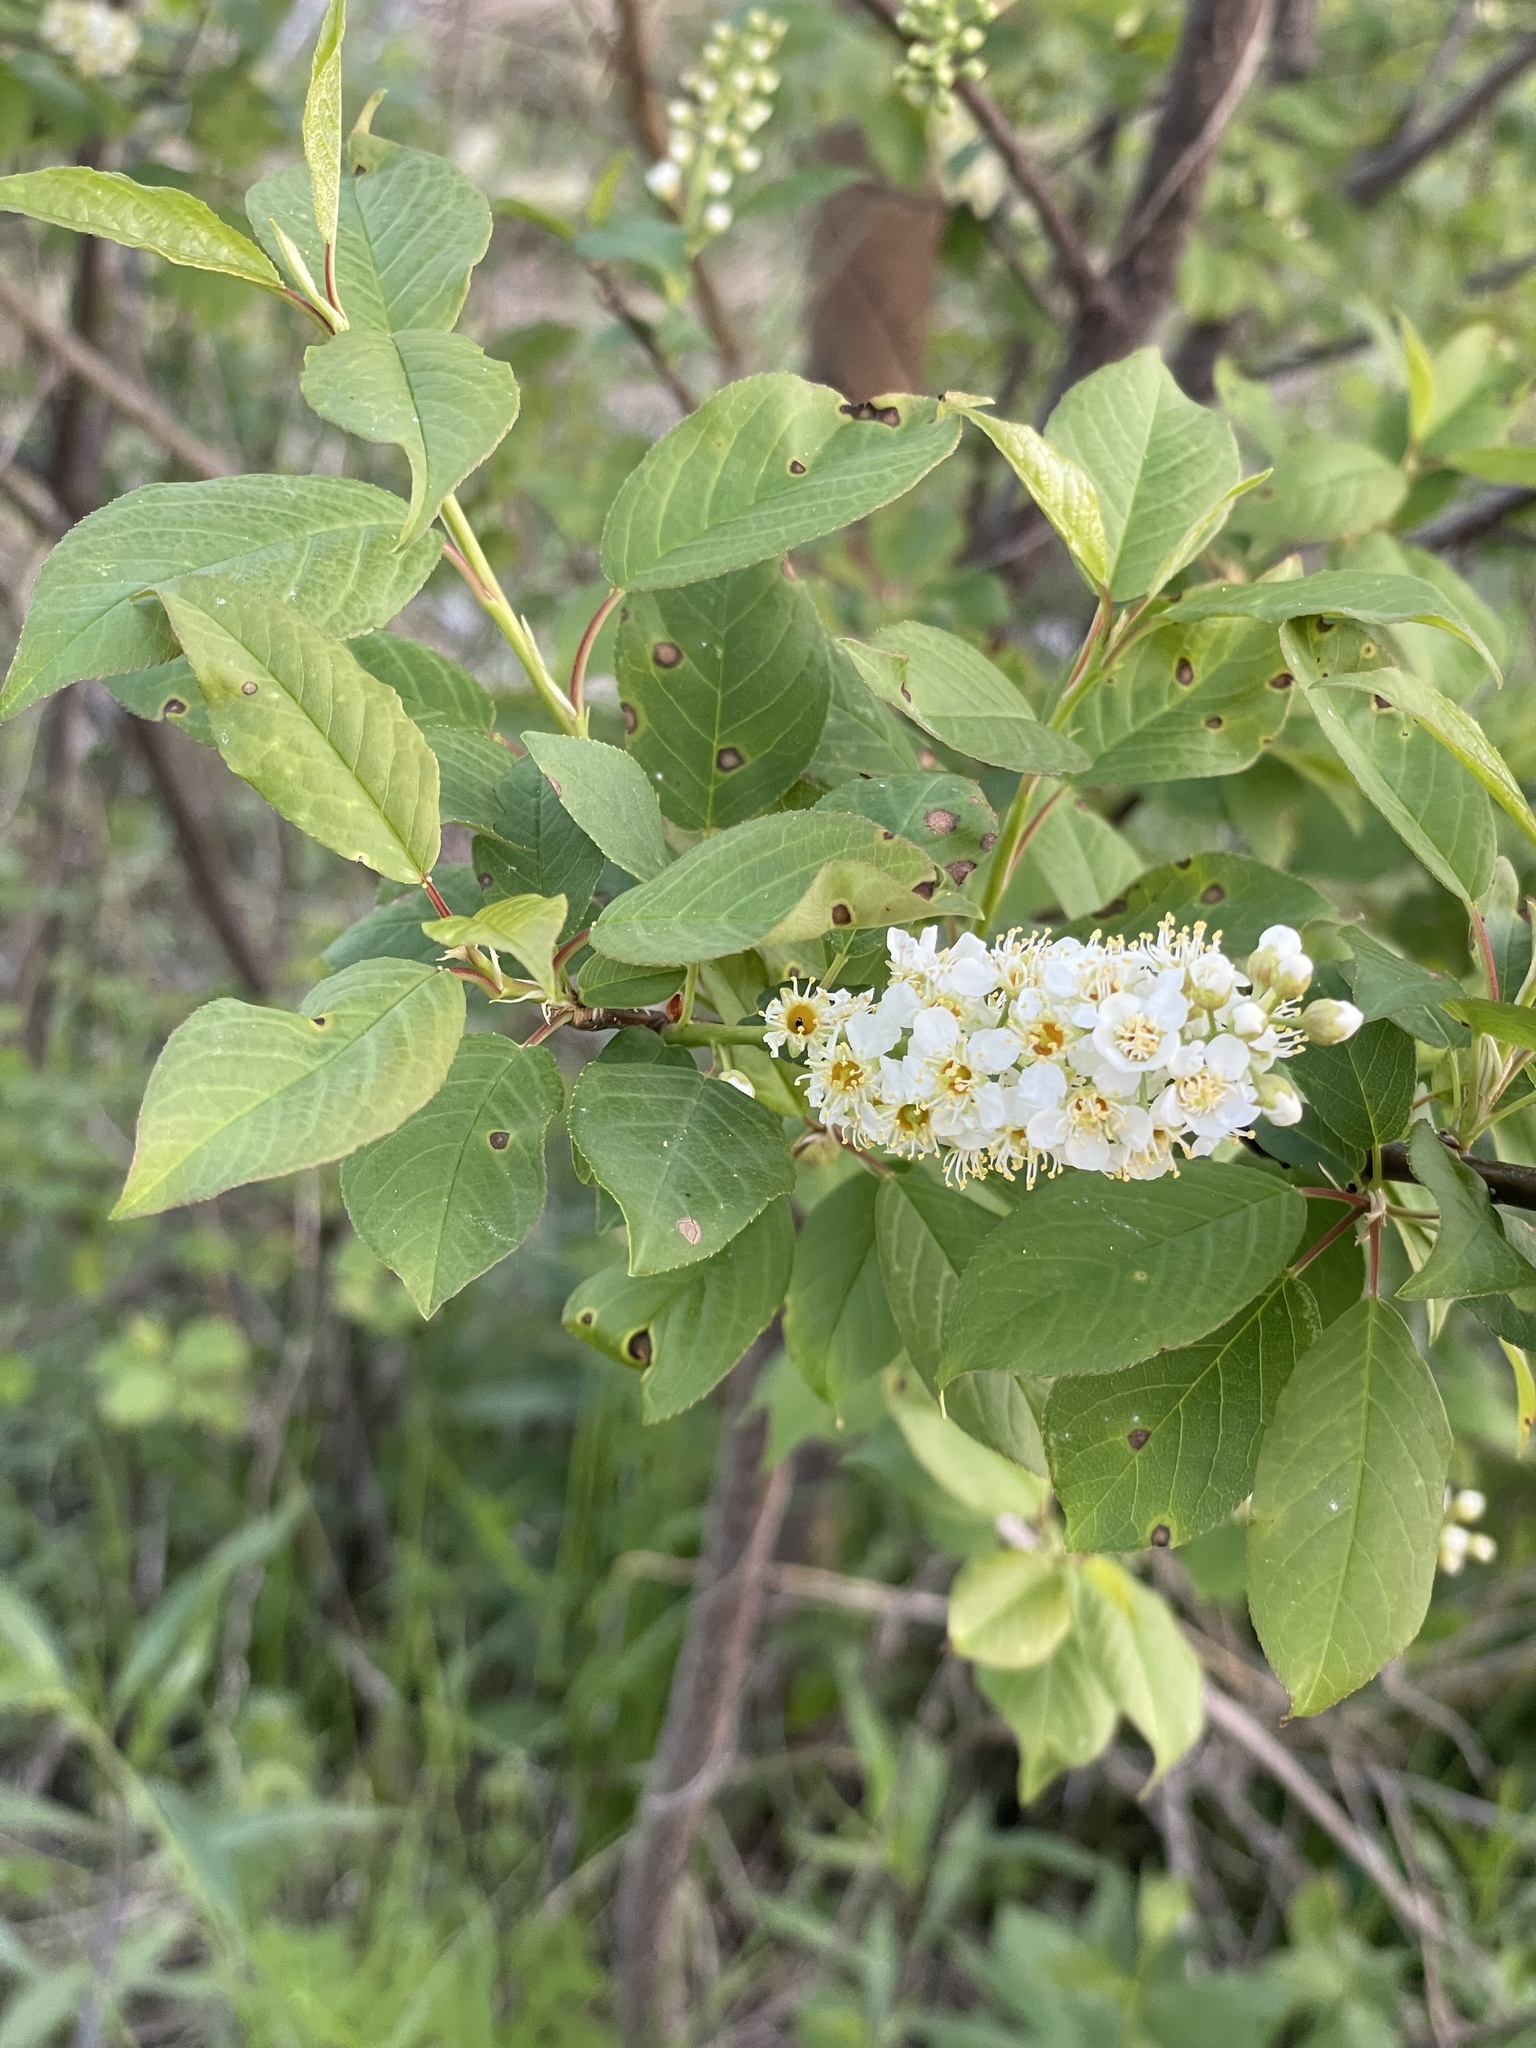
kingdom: Plantae
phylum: Tracheophyta
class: Magnoliopsida
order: Rosales
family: Rosaceae
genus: Prunus
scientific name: Prunus virginiana
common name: Chokecherry
